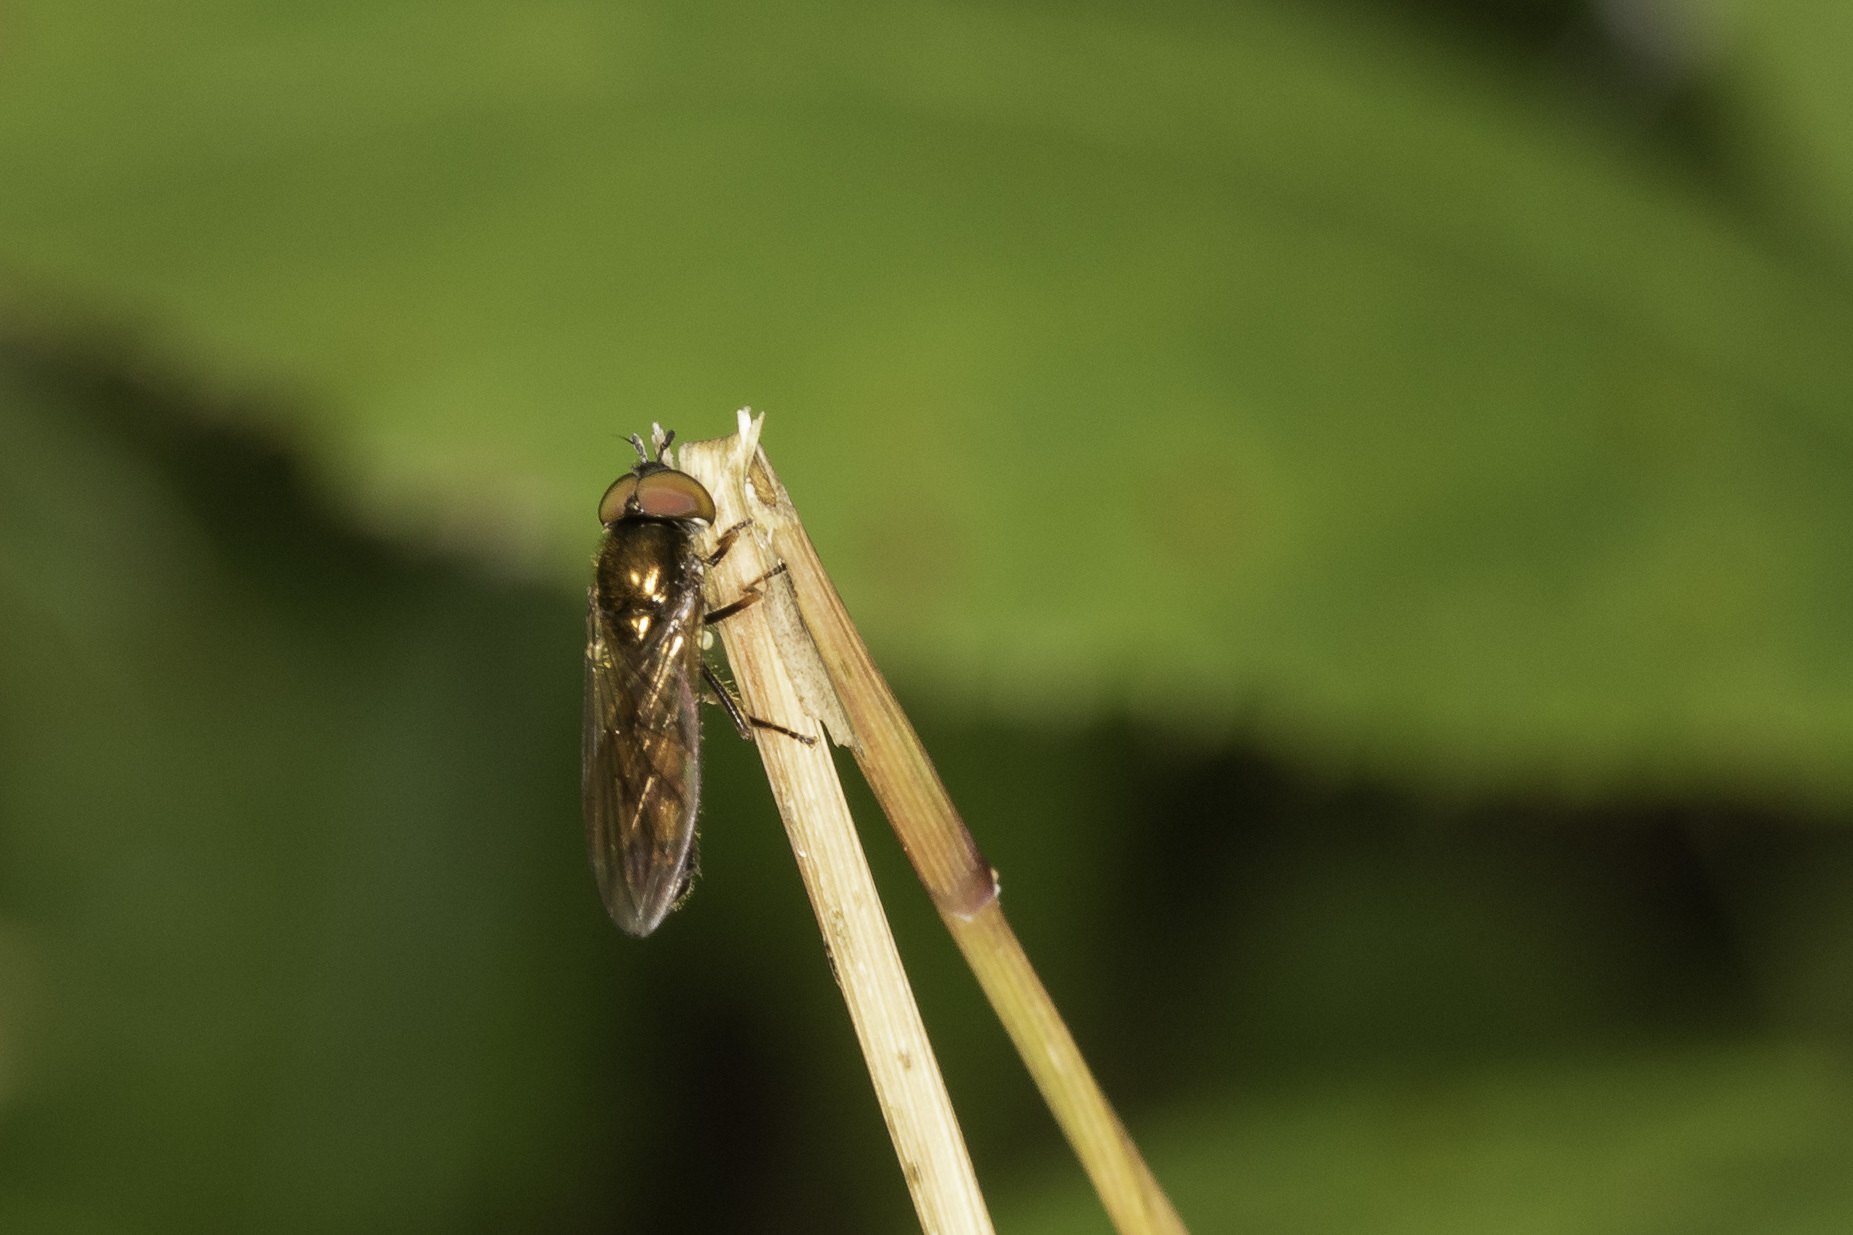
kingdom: Animalia
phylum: Arthropoda
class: Insecta
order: Diptera
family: Syrphidae
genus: Melanostoma
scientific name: Melanostoma mellina
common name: Hover fly
